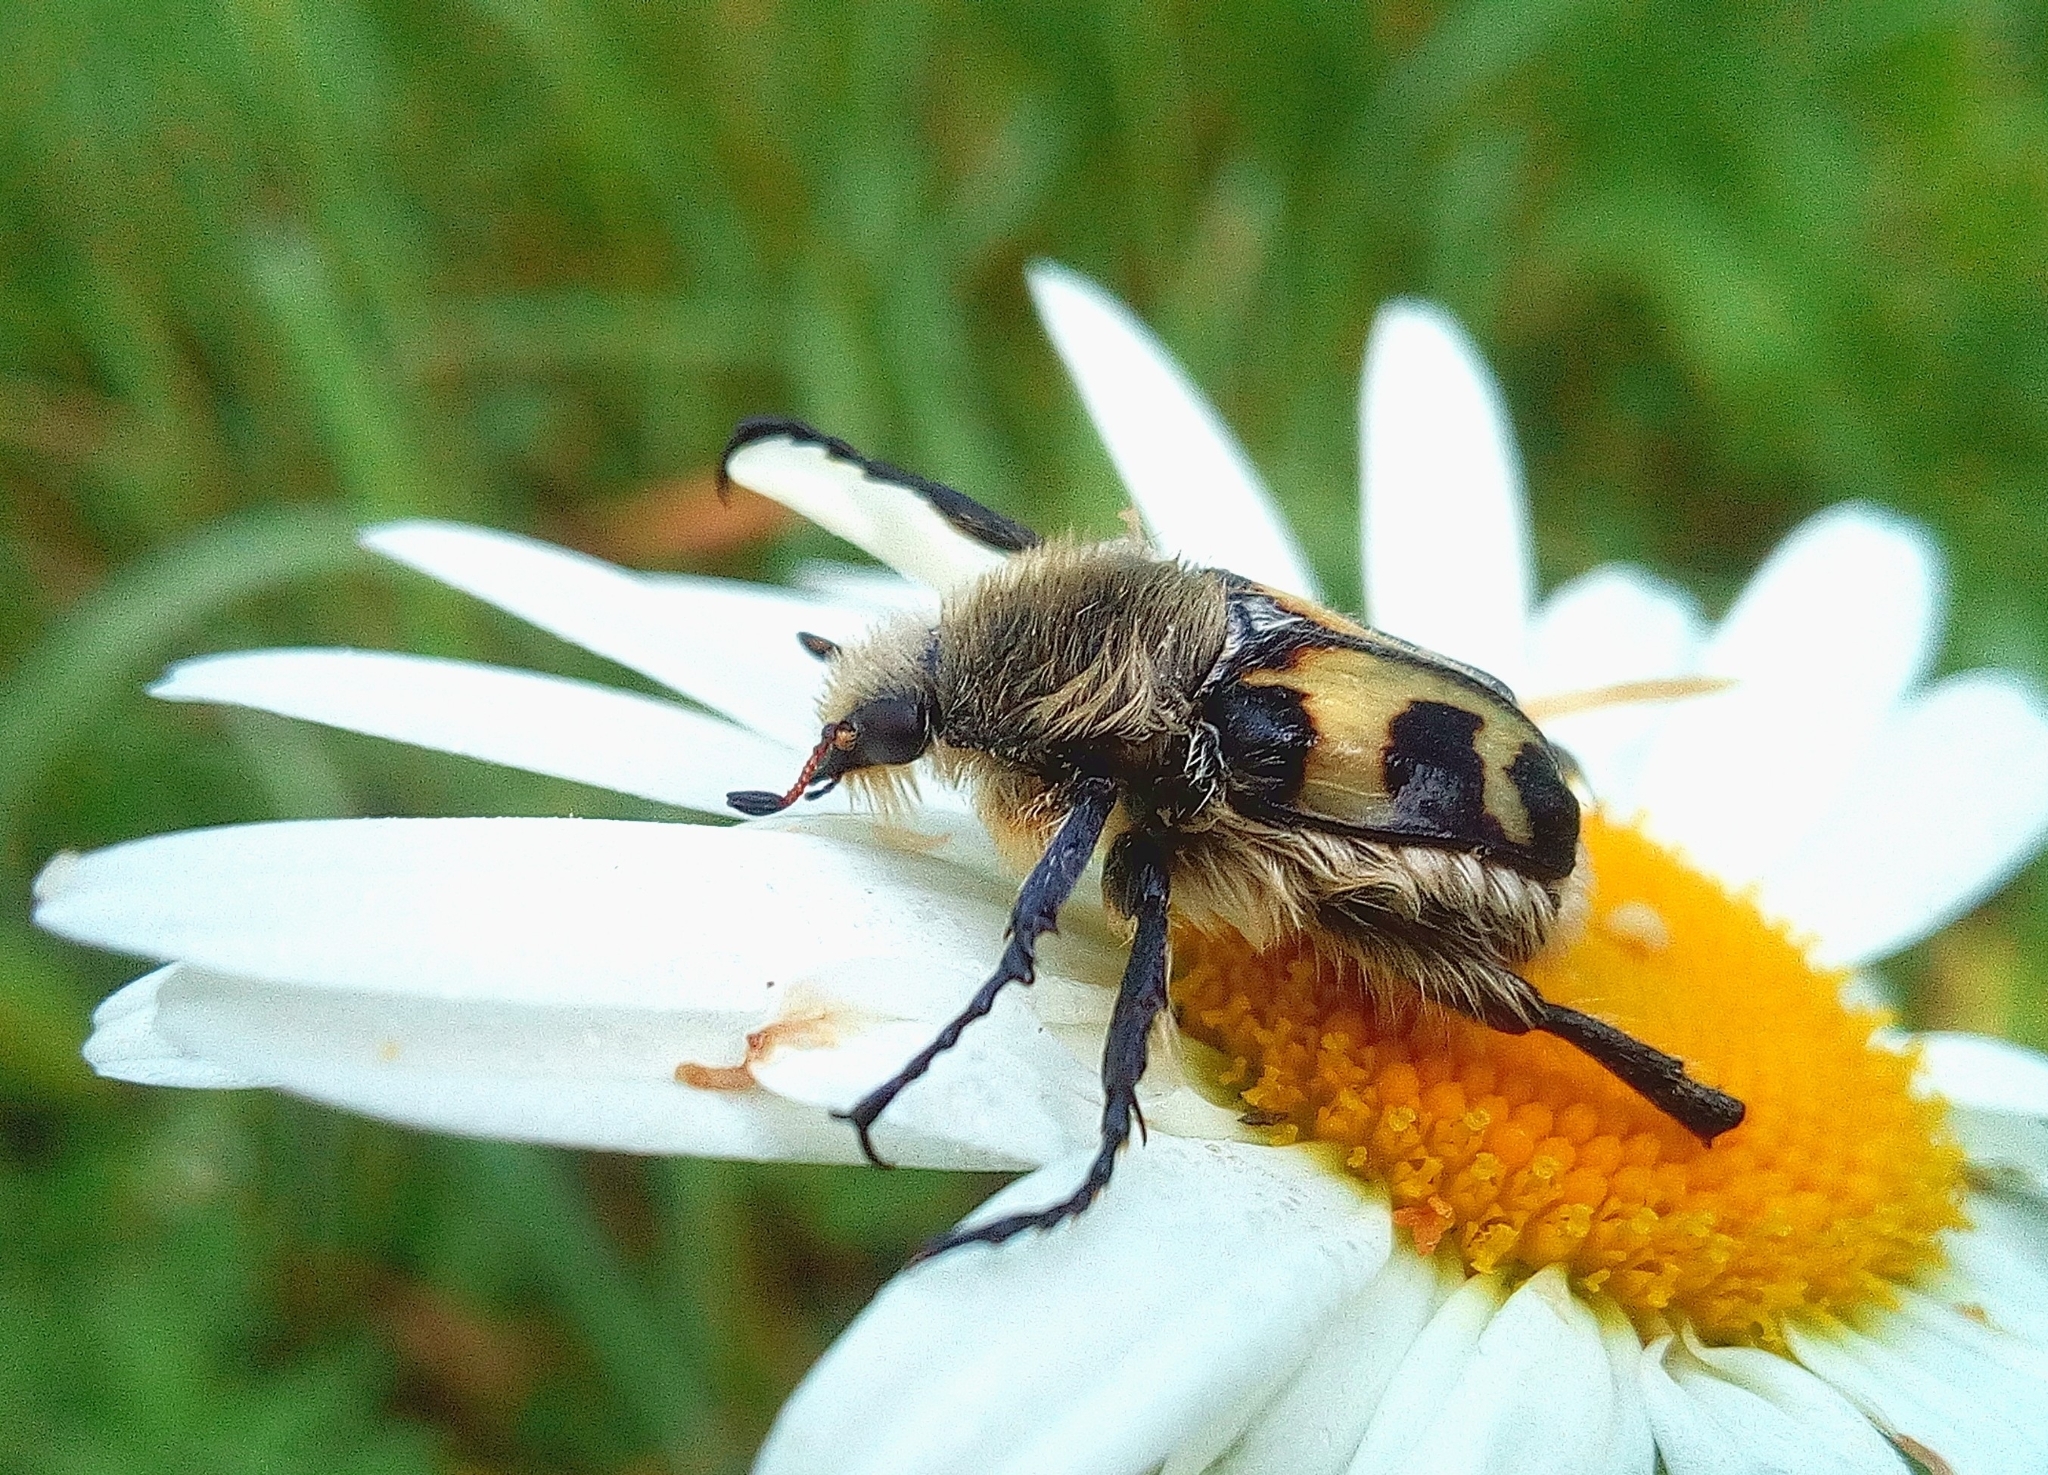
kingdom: Animalia
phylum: Arthropoda
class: Insecta
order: Coleoptera
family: Scarabaeidae
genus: Trichius
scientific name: Trichius fasciatus
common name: Bee beetle
